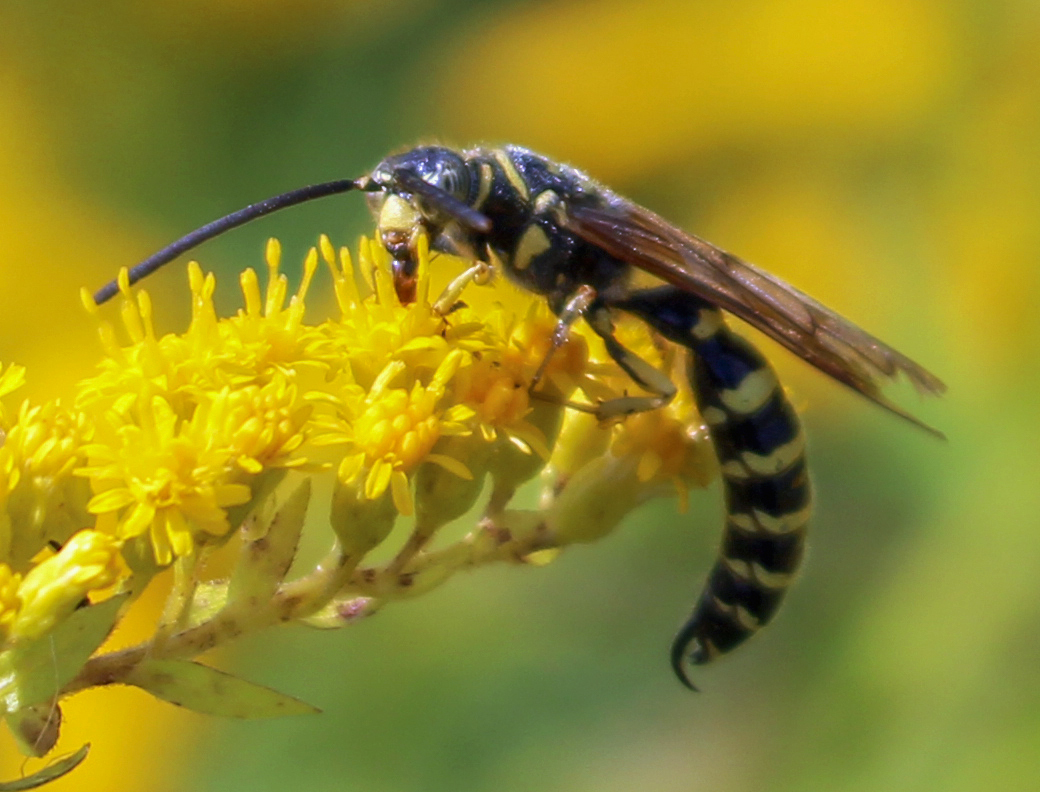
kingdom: Animalia
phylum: Arthropoda
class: Insecta
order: Hymenoptera
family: Tiphiidae
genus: Myzinum
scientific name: Myzinum quinquecinctum
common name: Five-banded thynnid wasp
